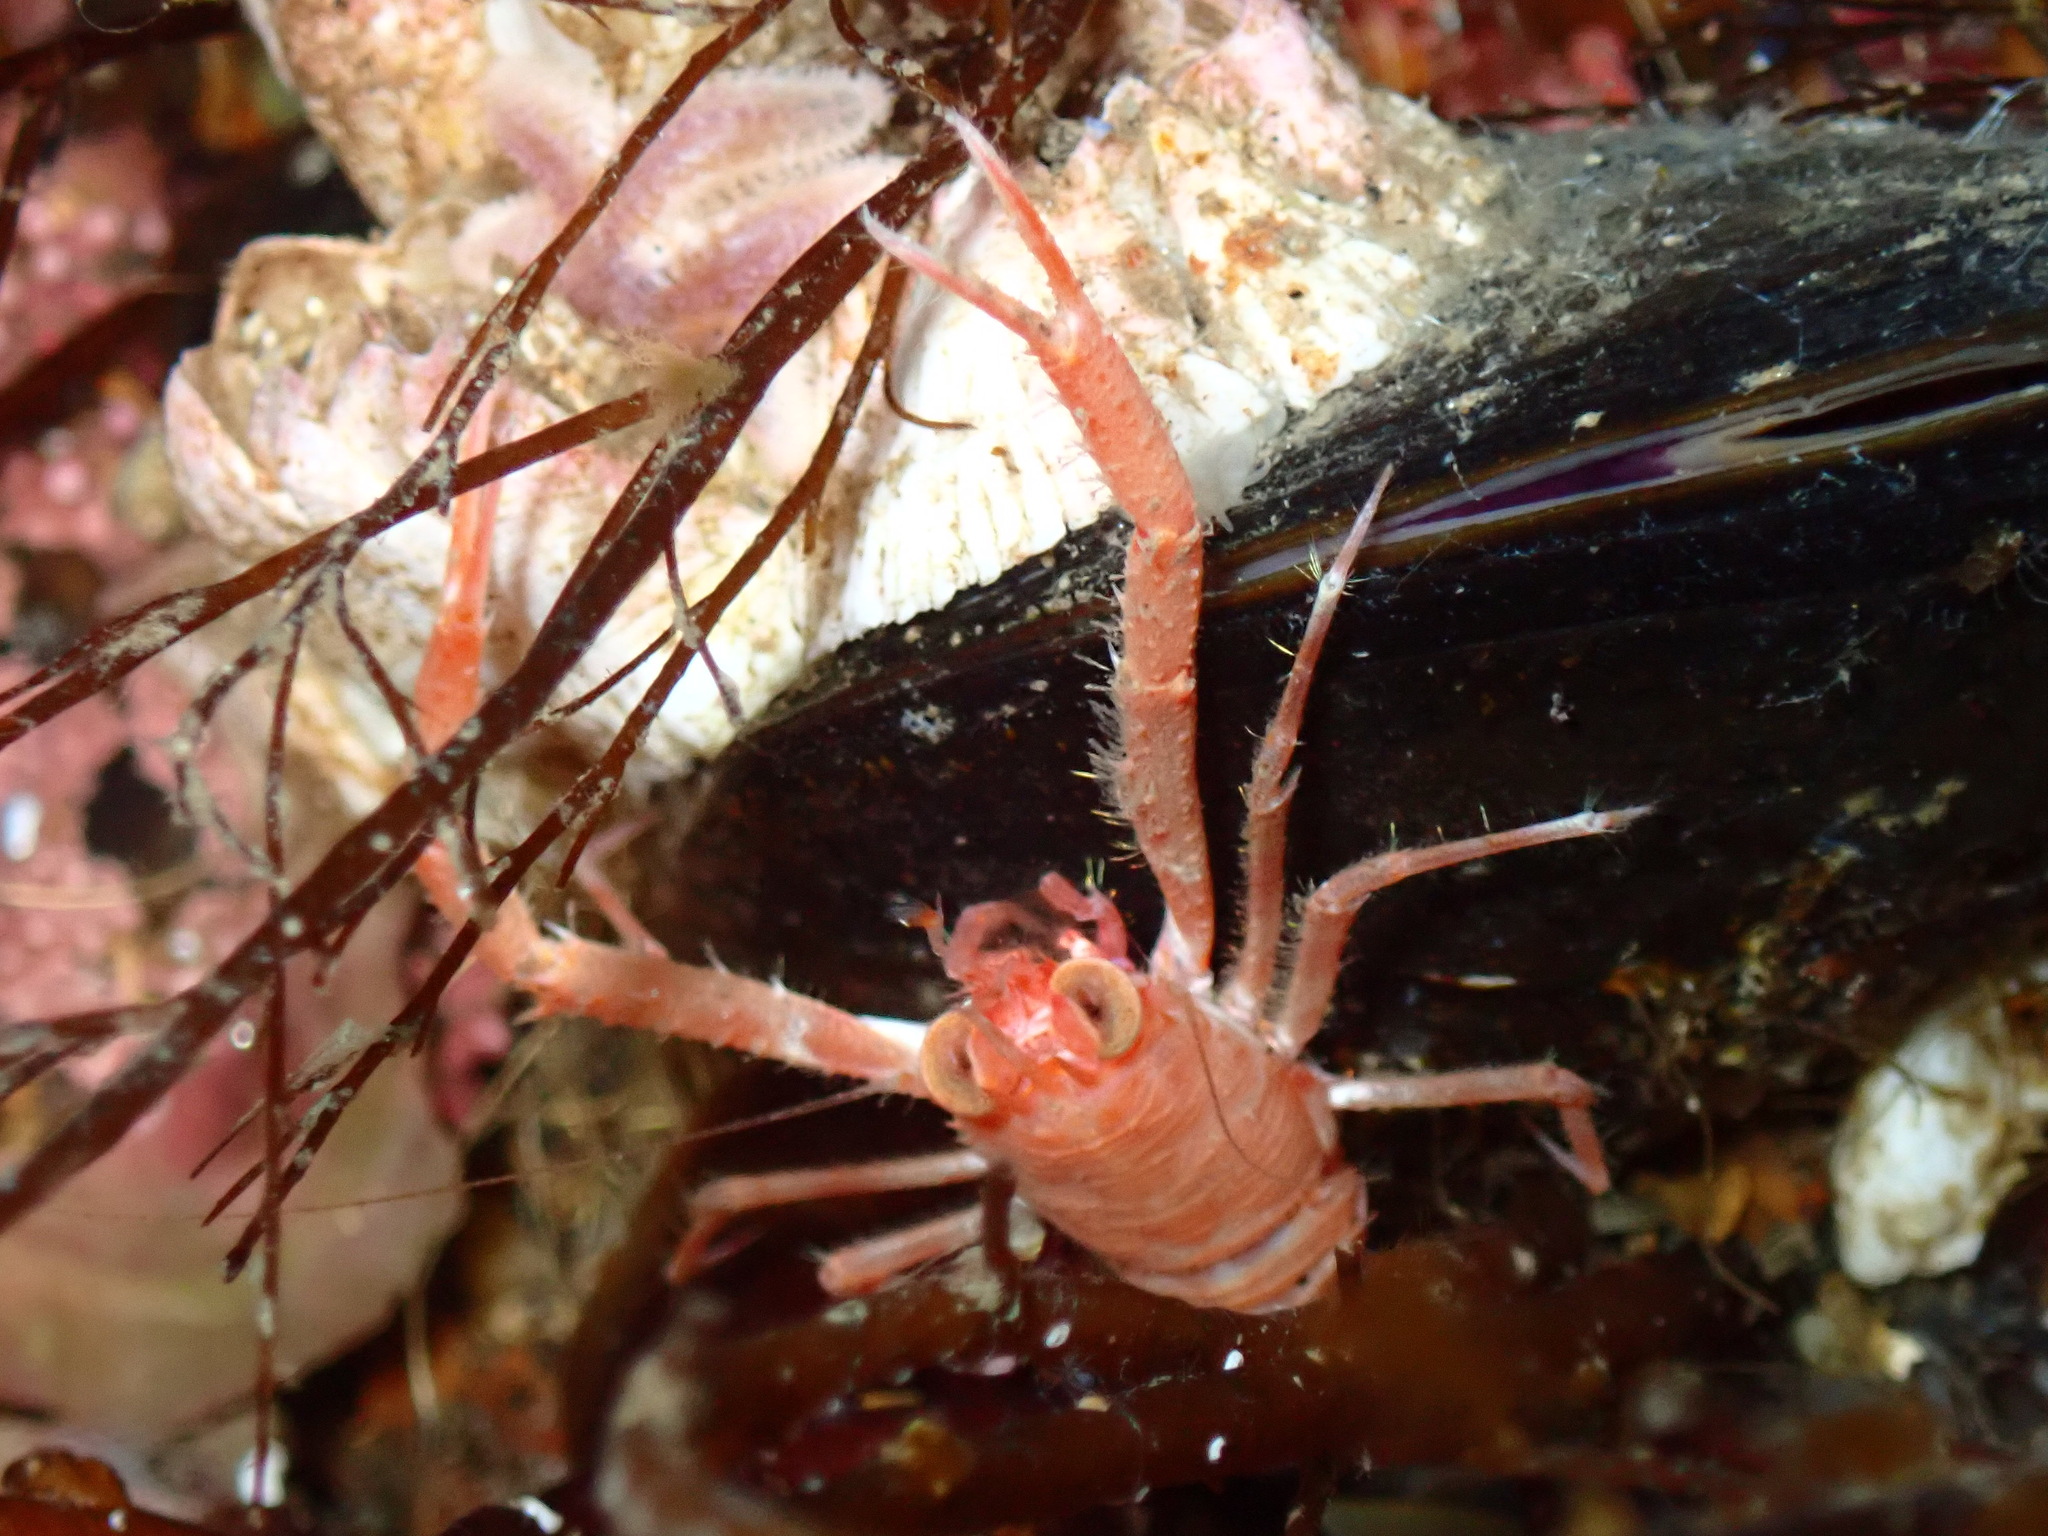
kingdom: Animalia
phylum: Arthropoda
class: Malacostraca
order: Decapoda
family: Munididae
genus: Munida
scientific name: Munida rugosa
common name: Rugose squat lobster
